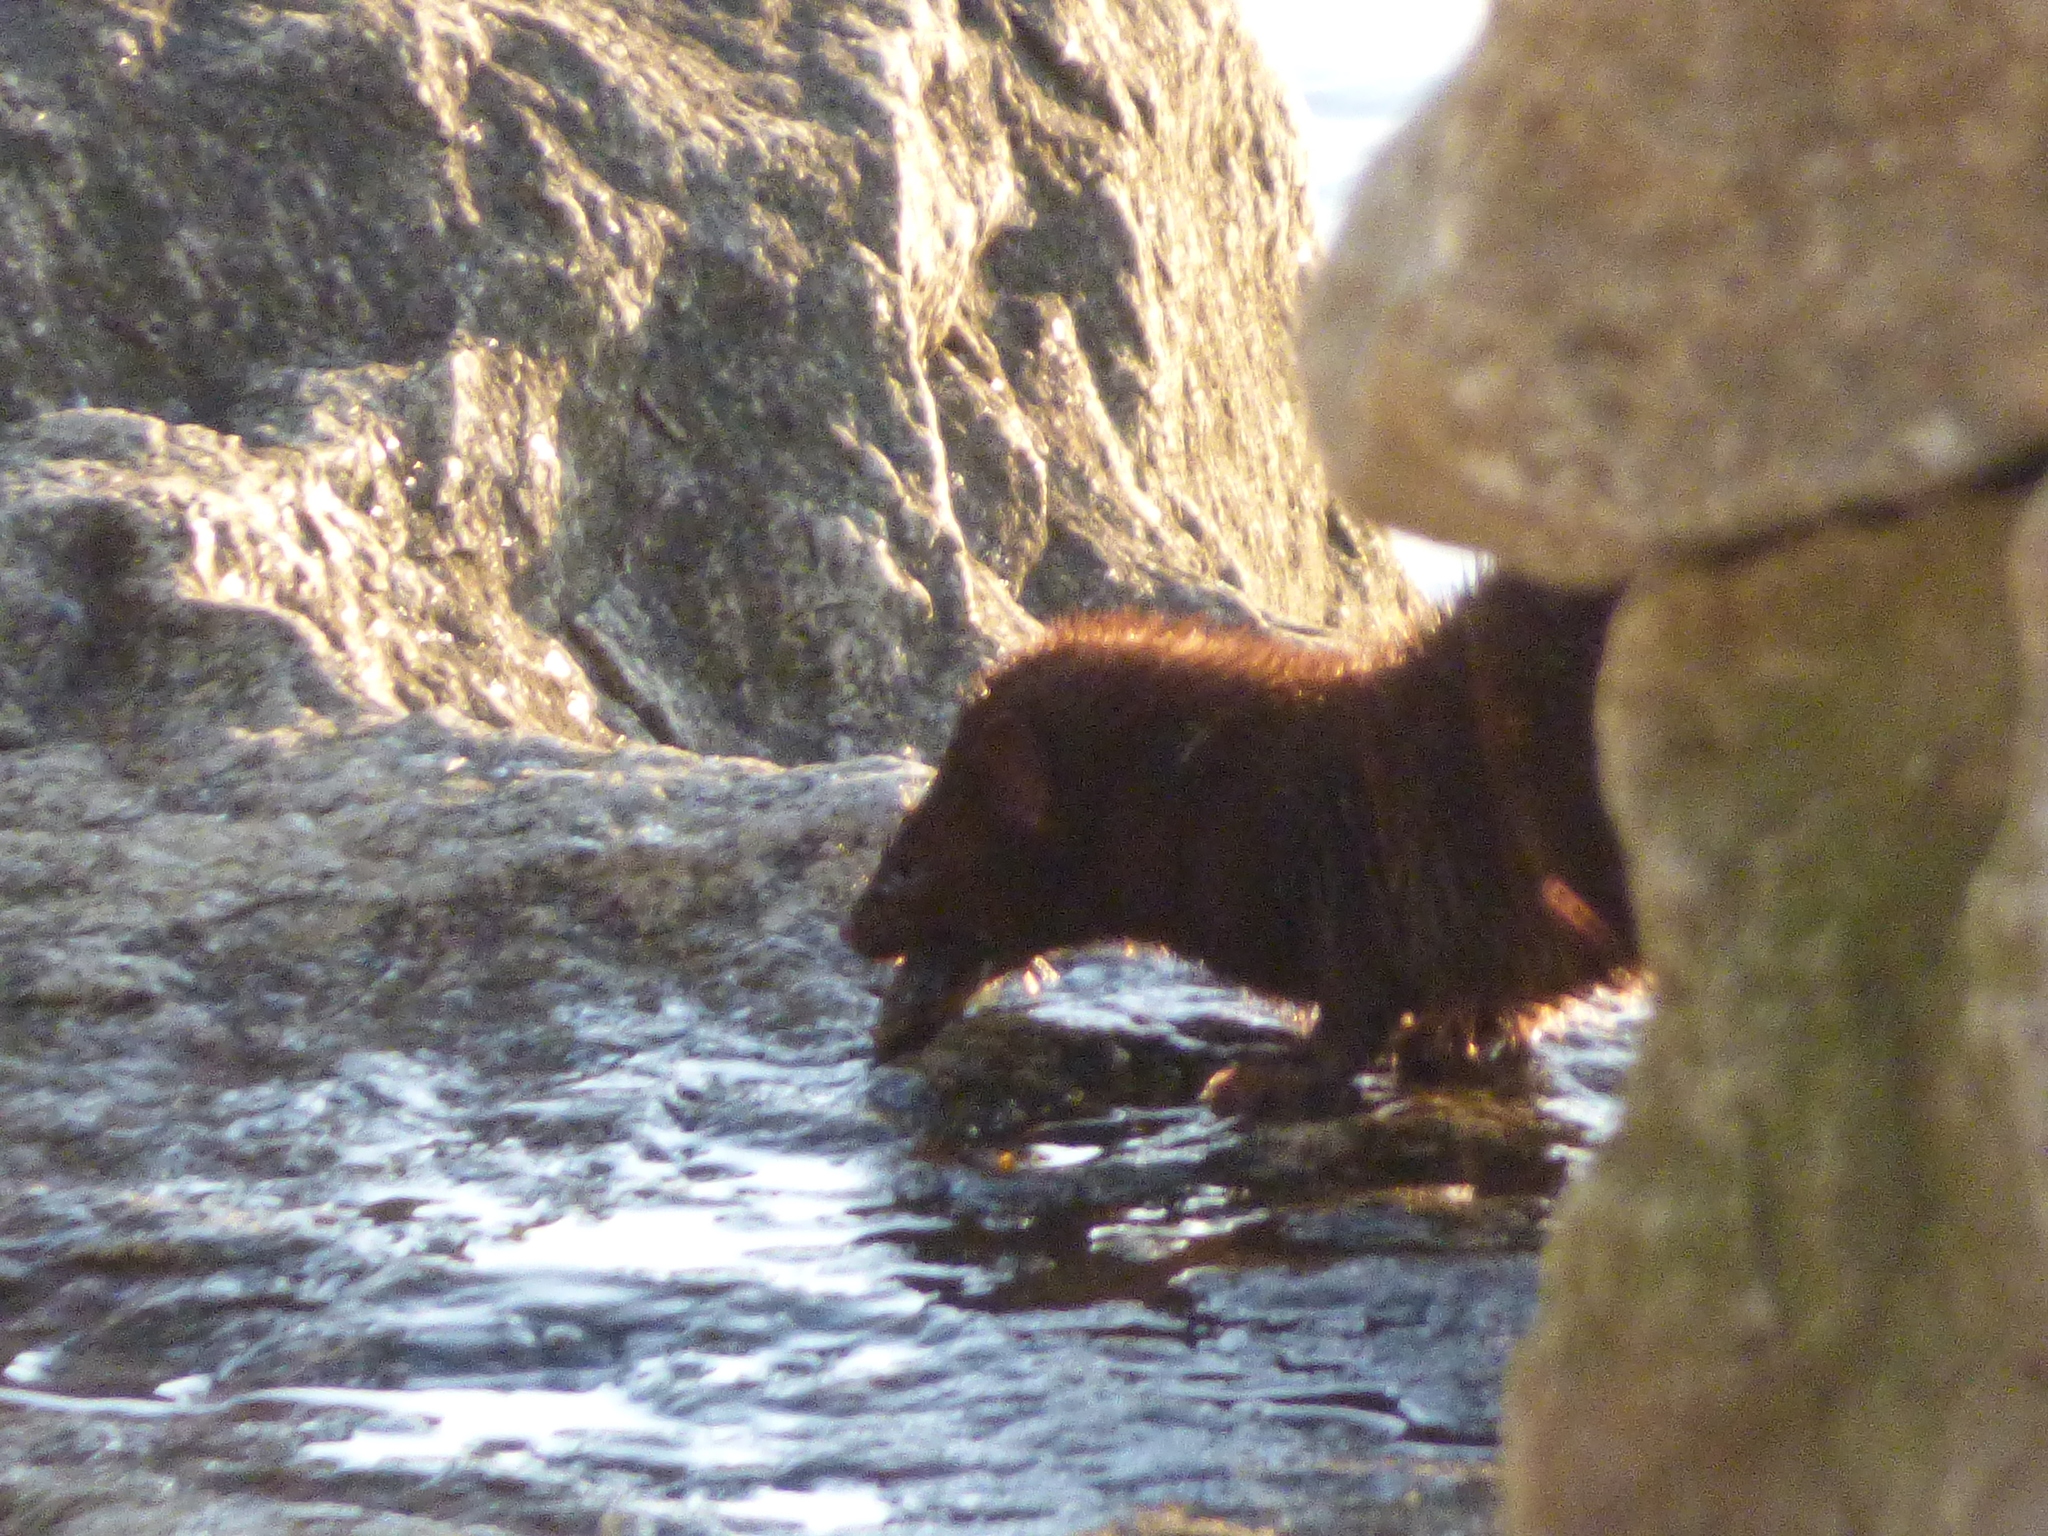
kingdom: Animalia
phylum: Chordata
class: Mammalia
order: Carnivora
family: Mustelidae
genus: Mustela
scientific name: Mustela
